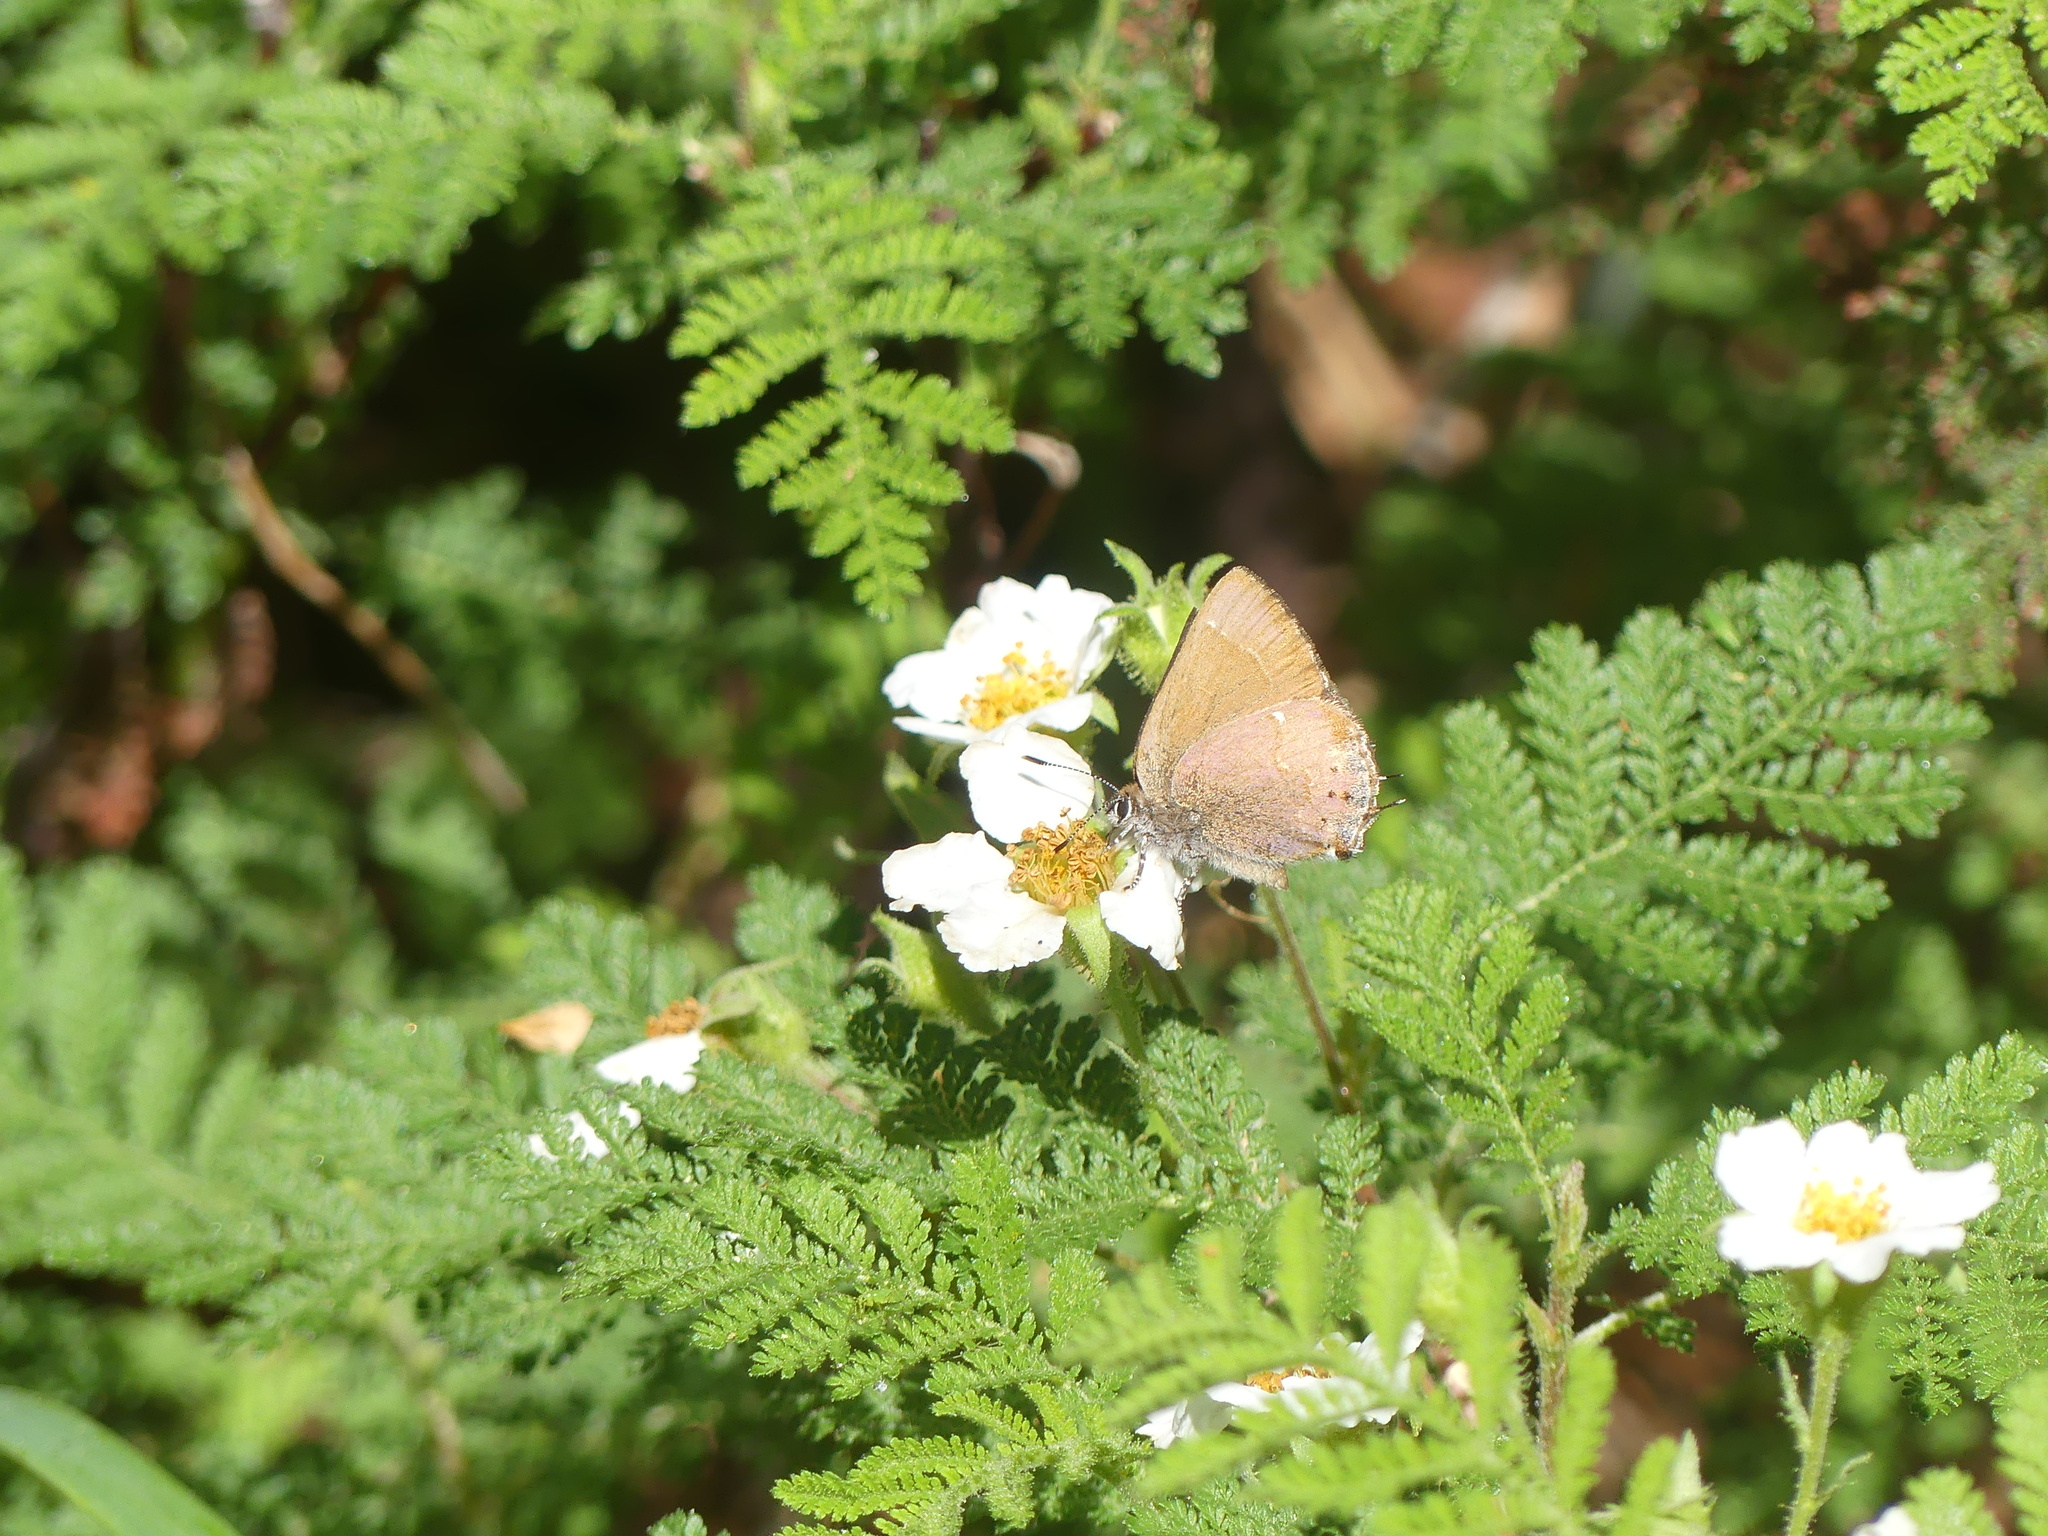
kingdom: Animalia
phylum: Arthropoda
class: Insecta
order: Lepidoptera
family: Lycaenidae
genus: Mitoura
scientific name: Mitoura gryneus
